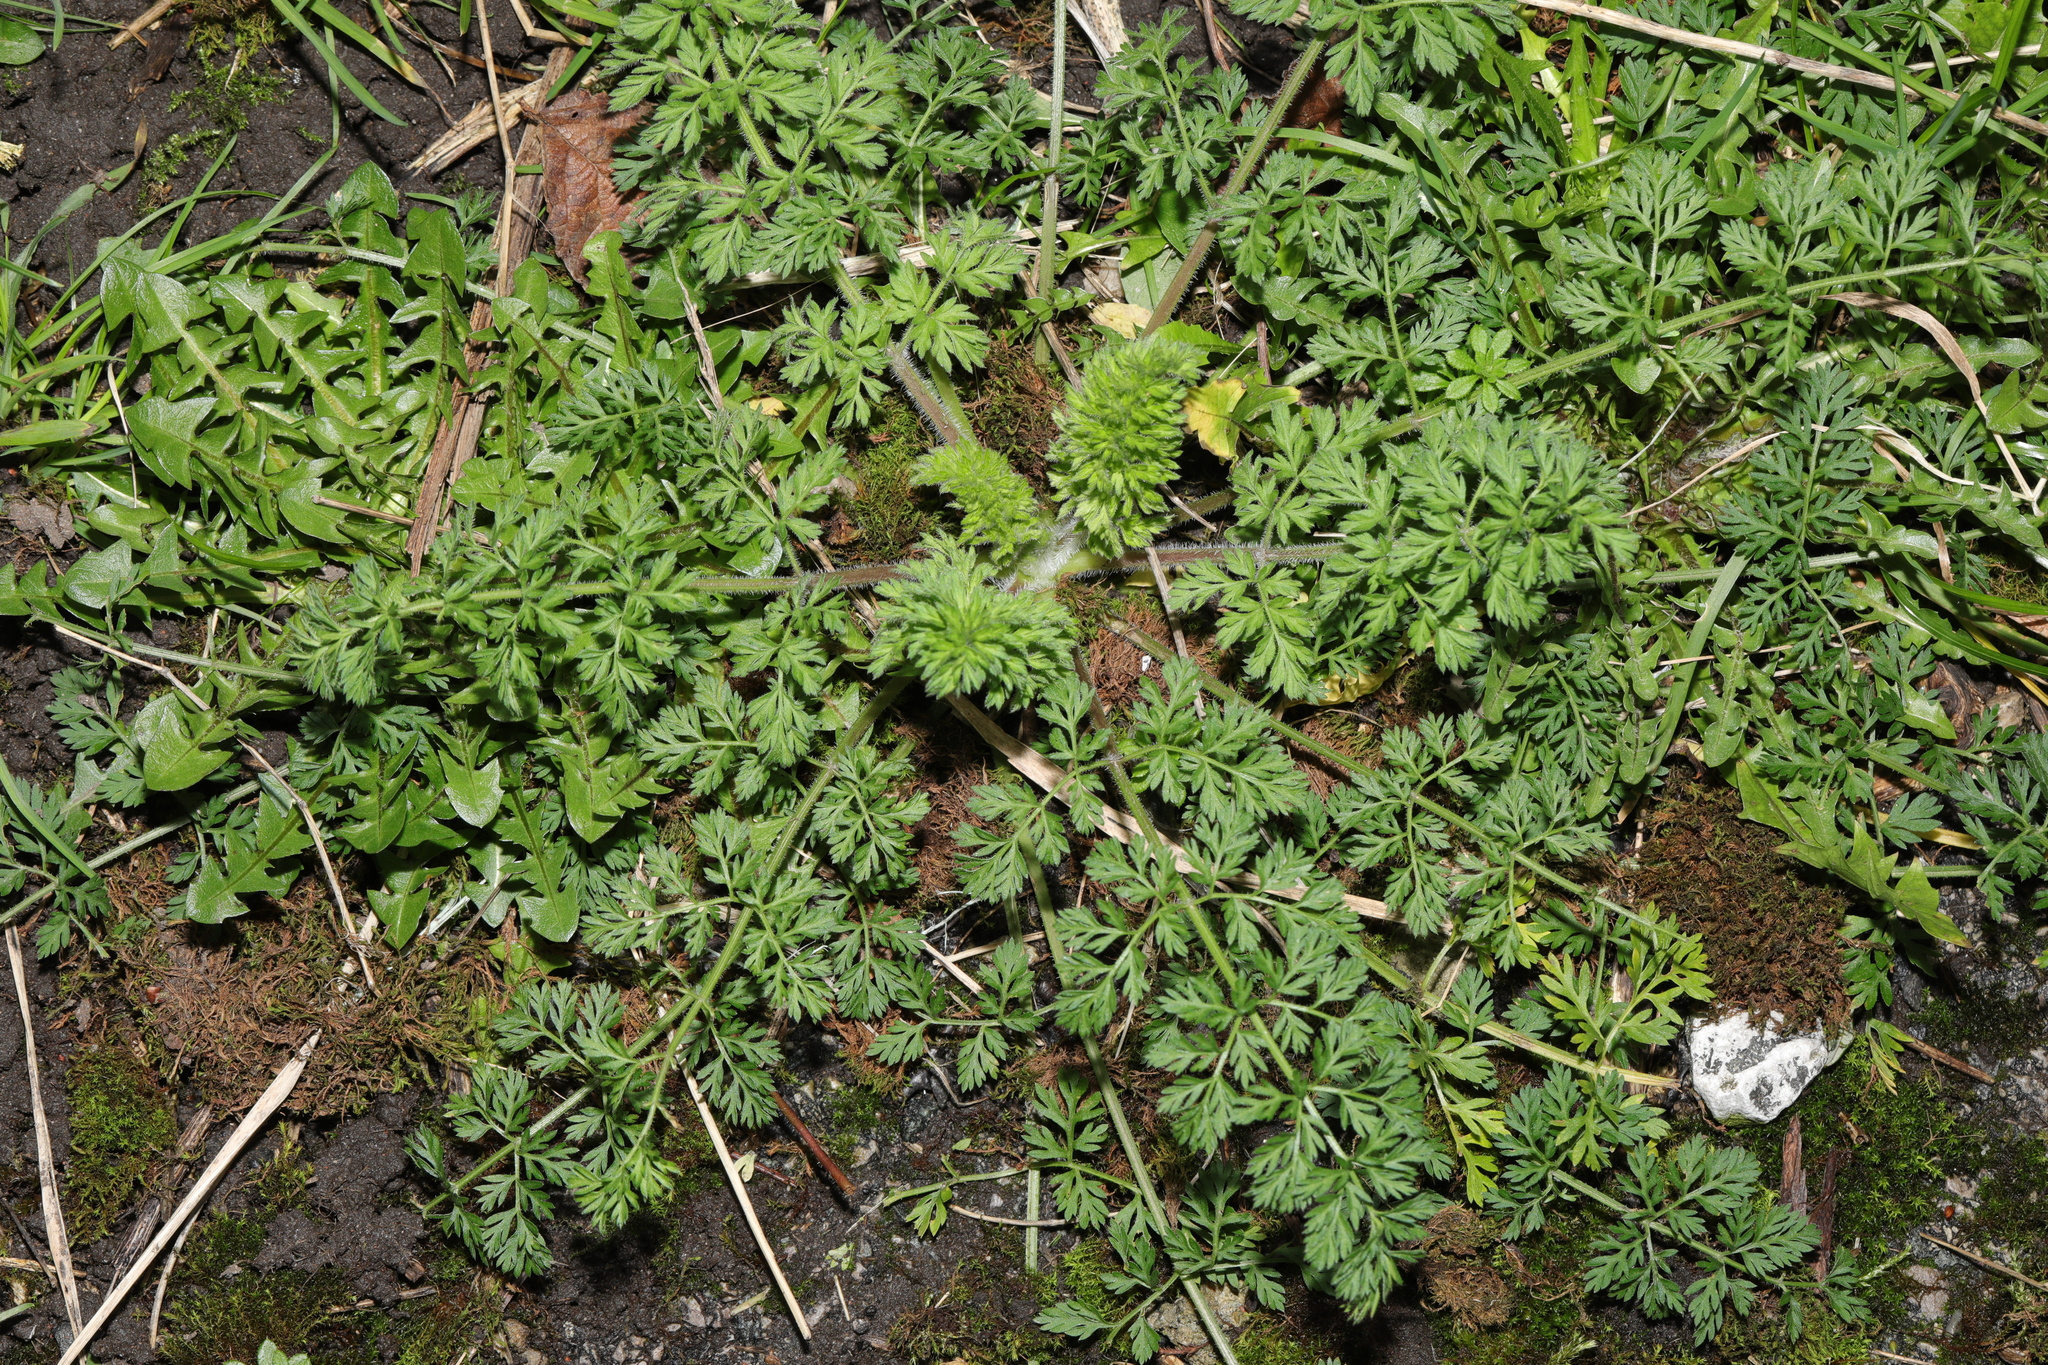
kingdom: Plantae
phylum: Tracheophyta
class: Magnoliopsida
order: Apiales
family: Apiaceae
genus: Daucus
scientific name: Daucus carota
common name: Wild carrot
